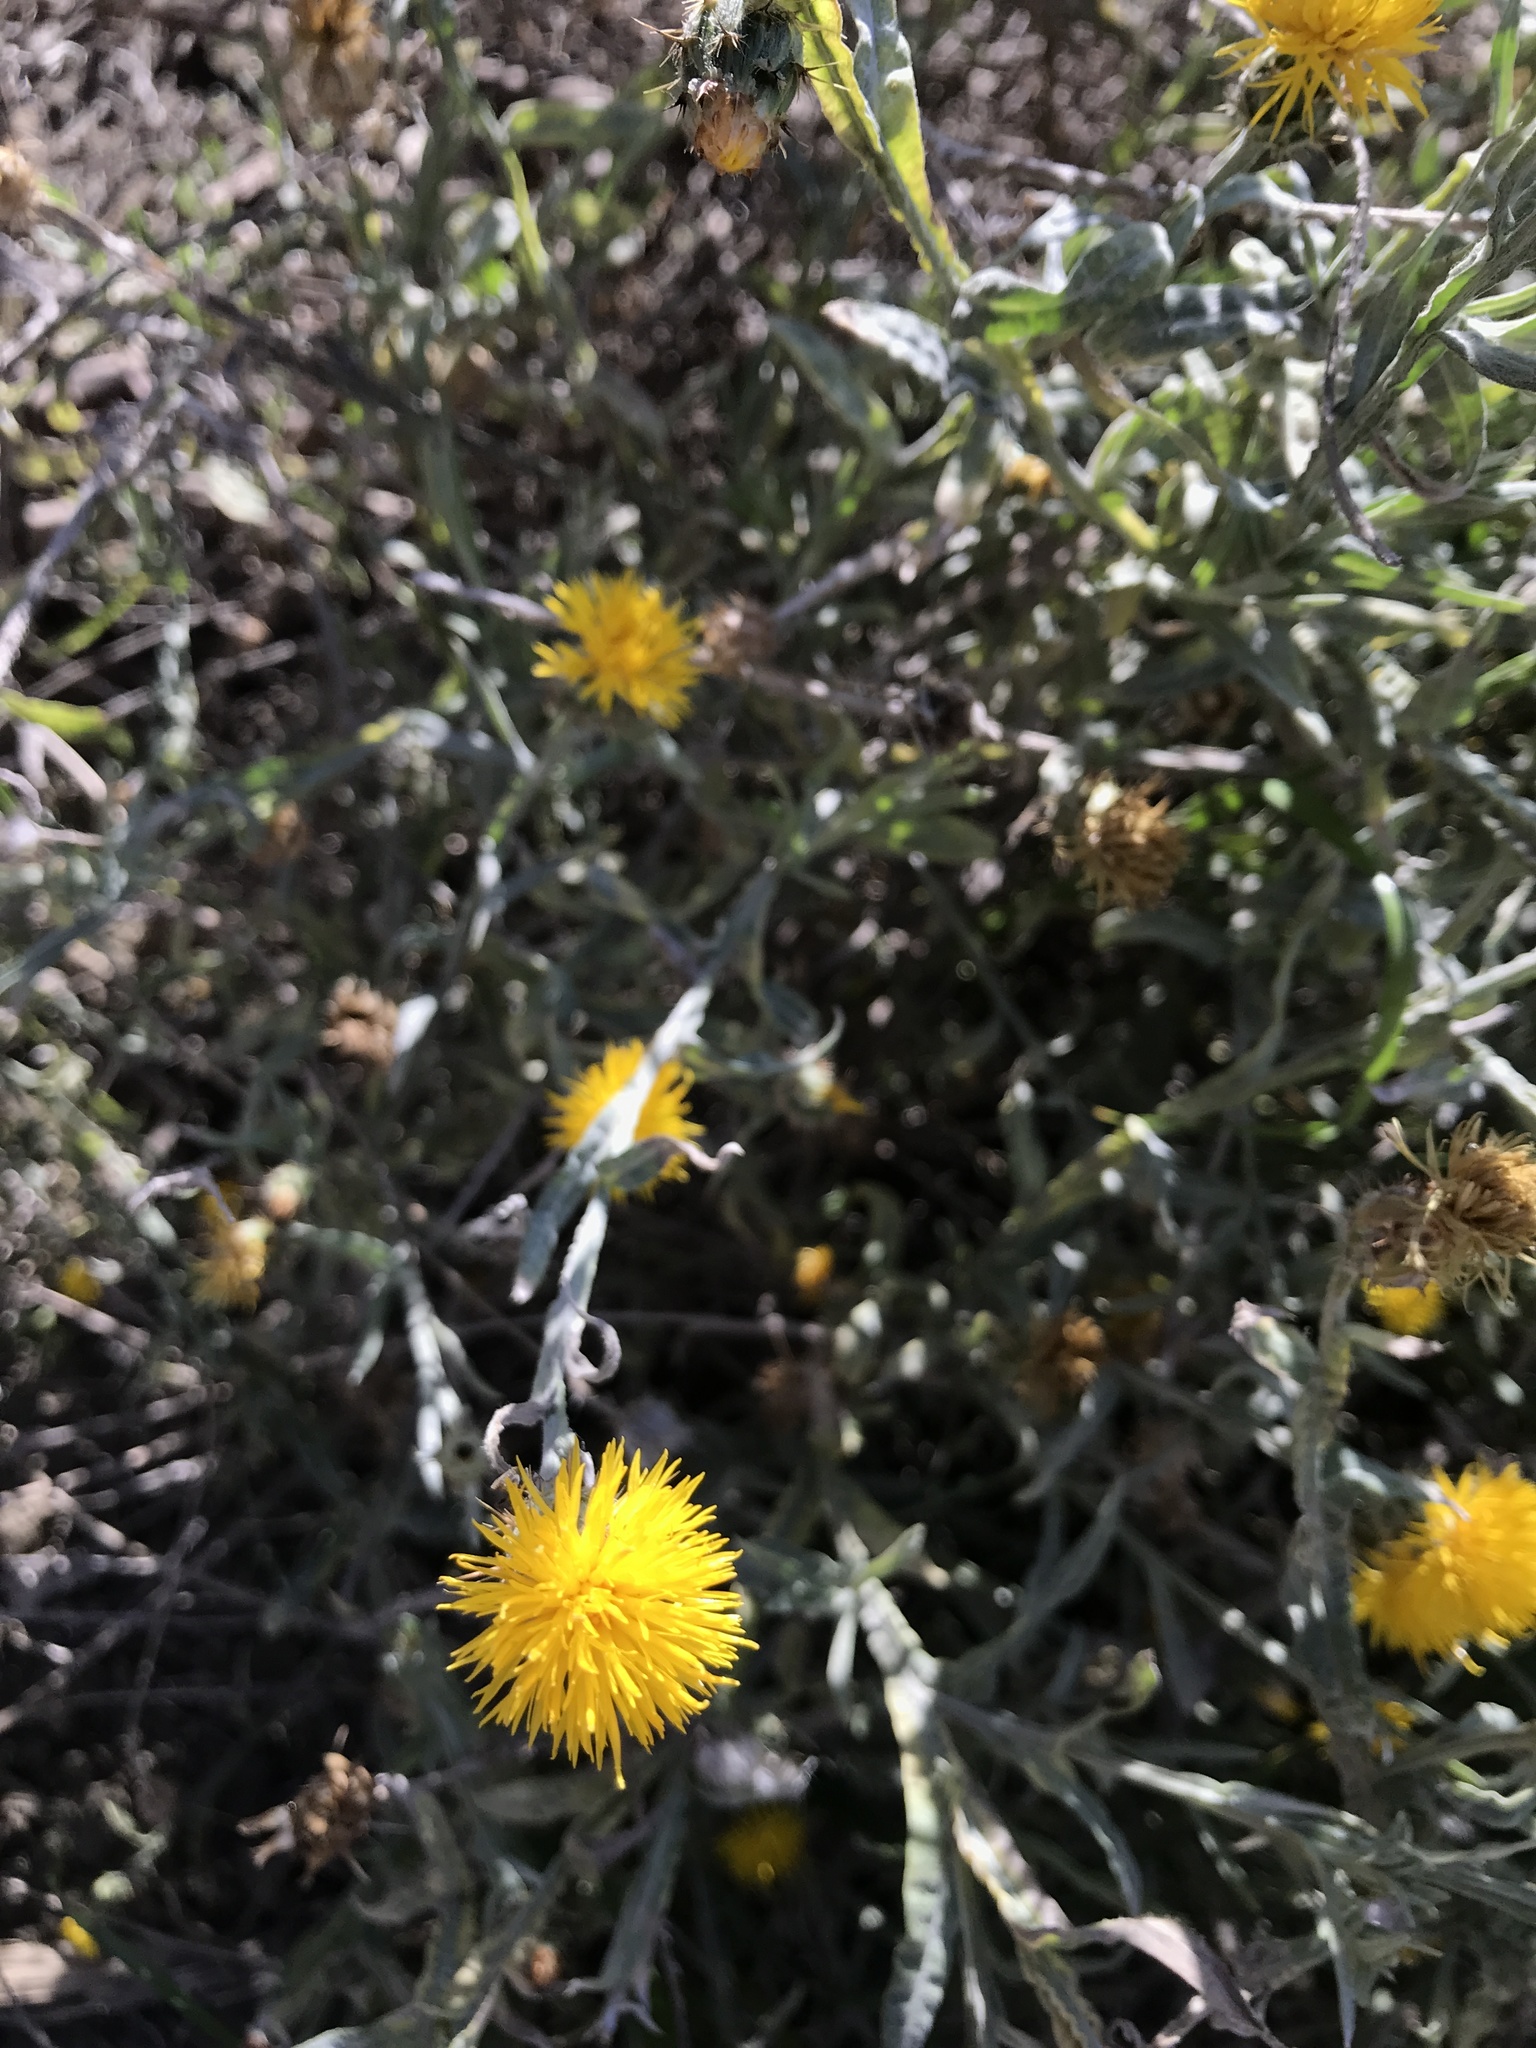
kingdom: Plantae
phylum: Tracheophyta
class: Magnoliopsida
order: Asterales
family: Asteraceae
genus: Centaurea
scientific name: Centaurea solstitialis
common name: Yellow star-thistle
